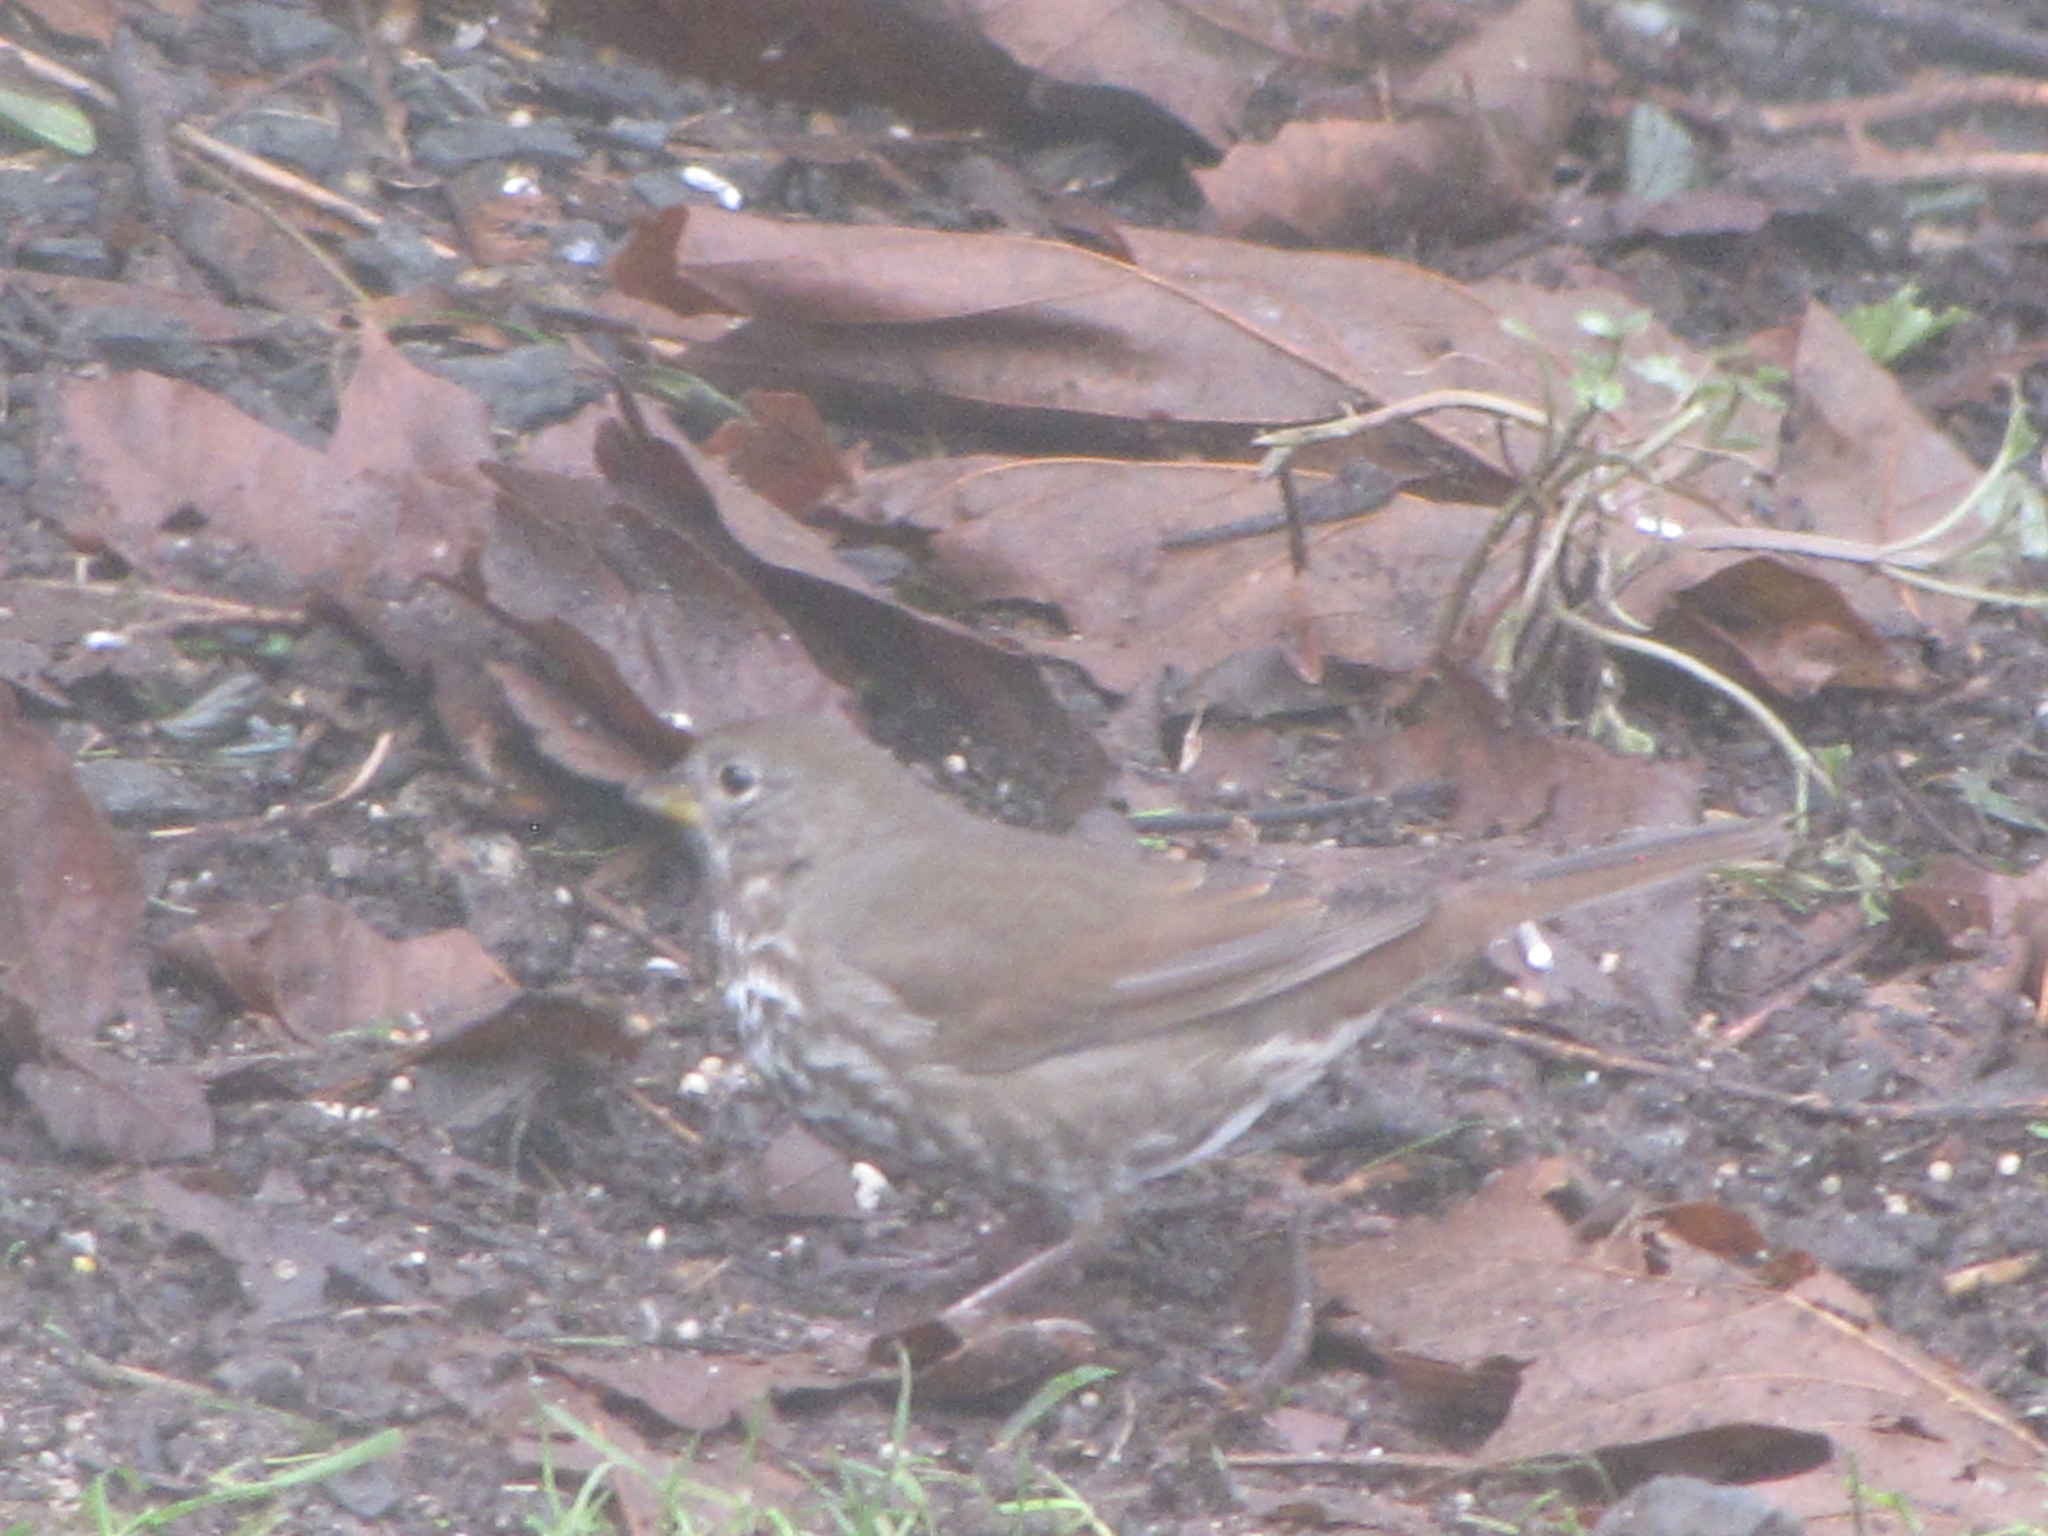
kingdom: Animalia
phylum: Chordata
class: Aves
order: Passeriformes
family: Passerellidae
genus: Passerella
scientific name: Passerella iliaca
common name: Fox sparrow
